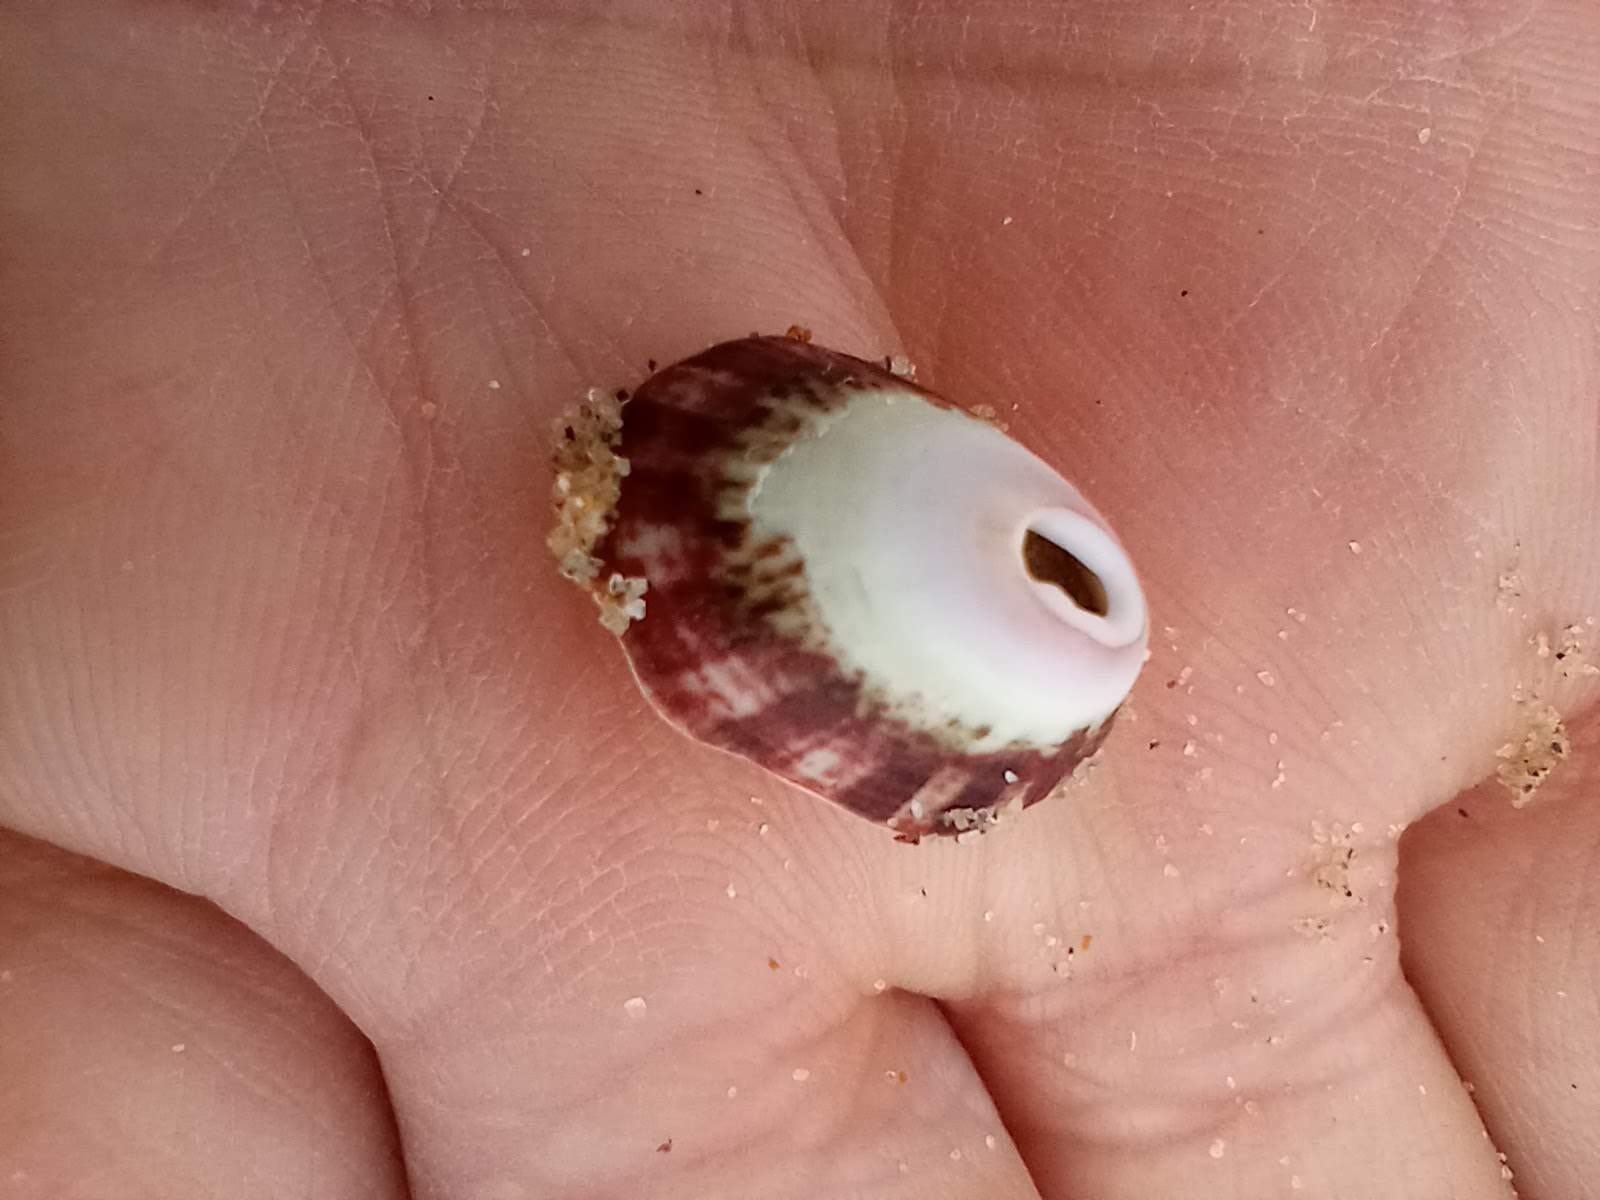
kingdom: Animalia
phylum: Mollusca
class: Gastropoda
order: Lepetellida
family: Fissurellidae
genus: Fissurella
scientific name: Fissurella volcano
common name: Volcano keyhole limpet
